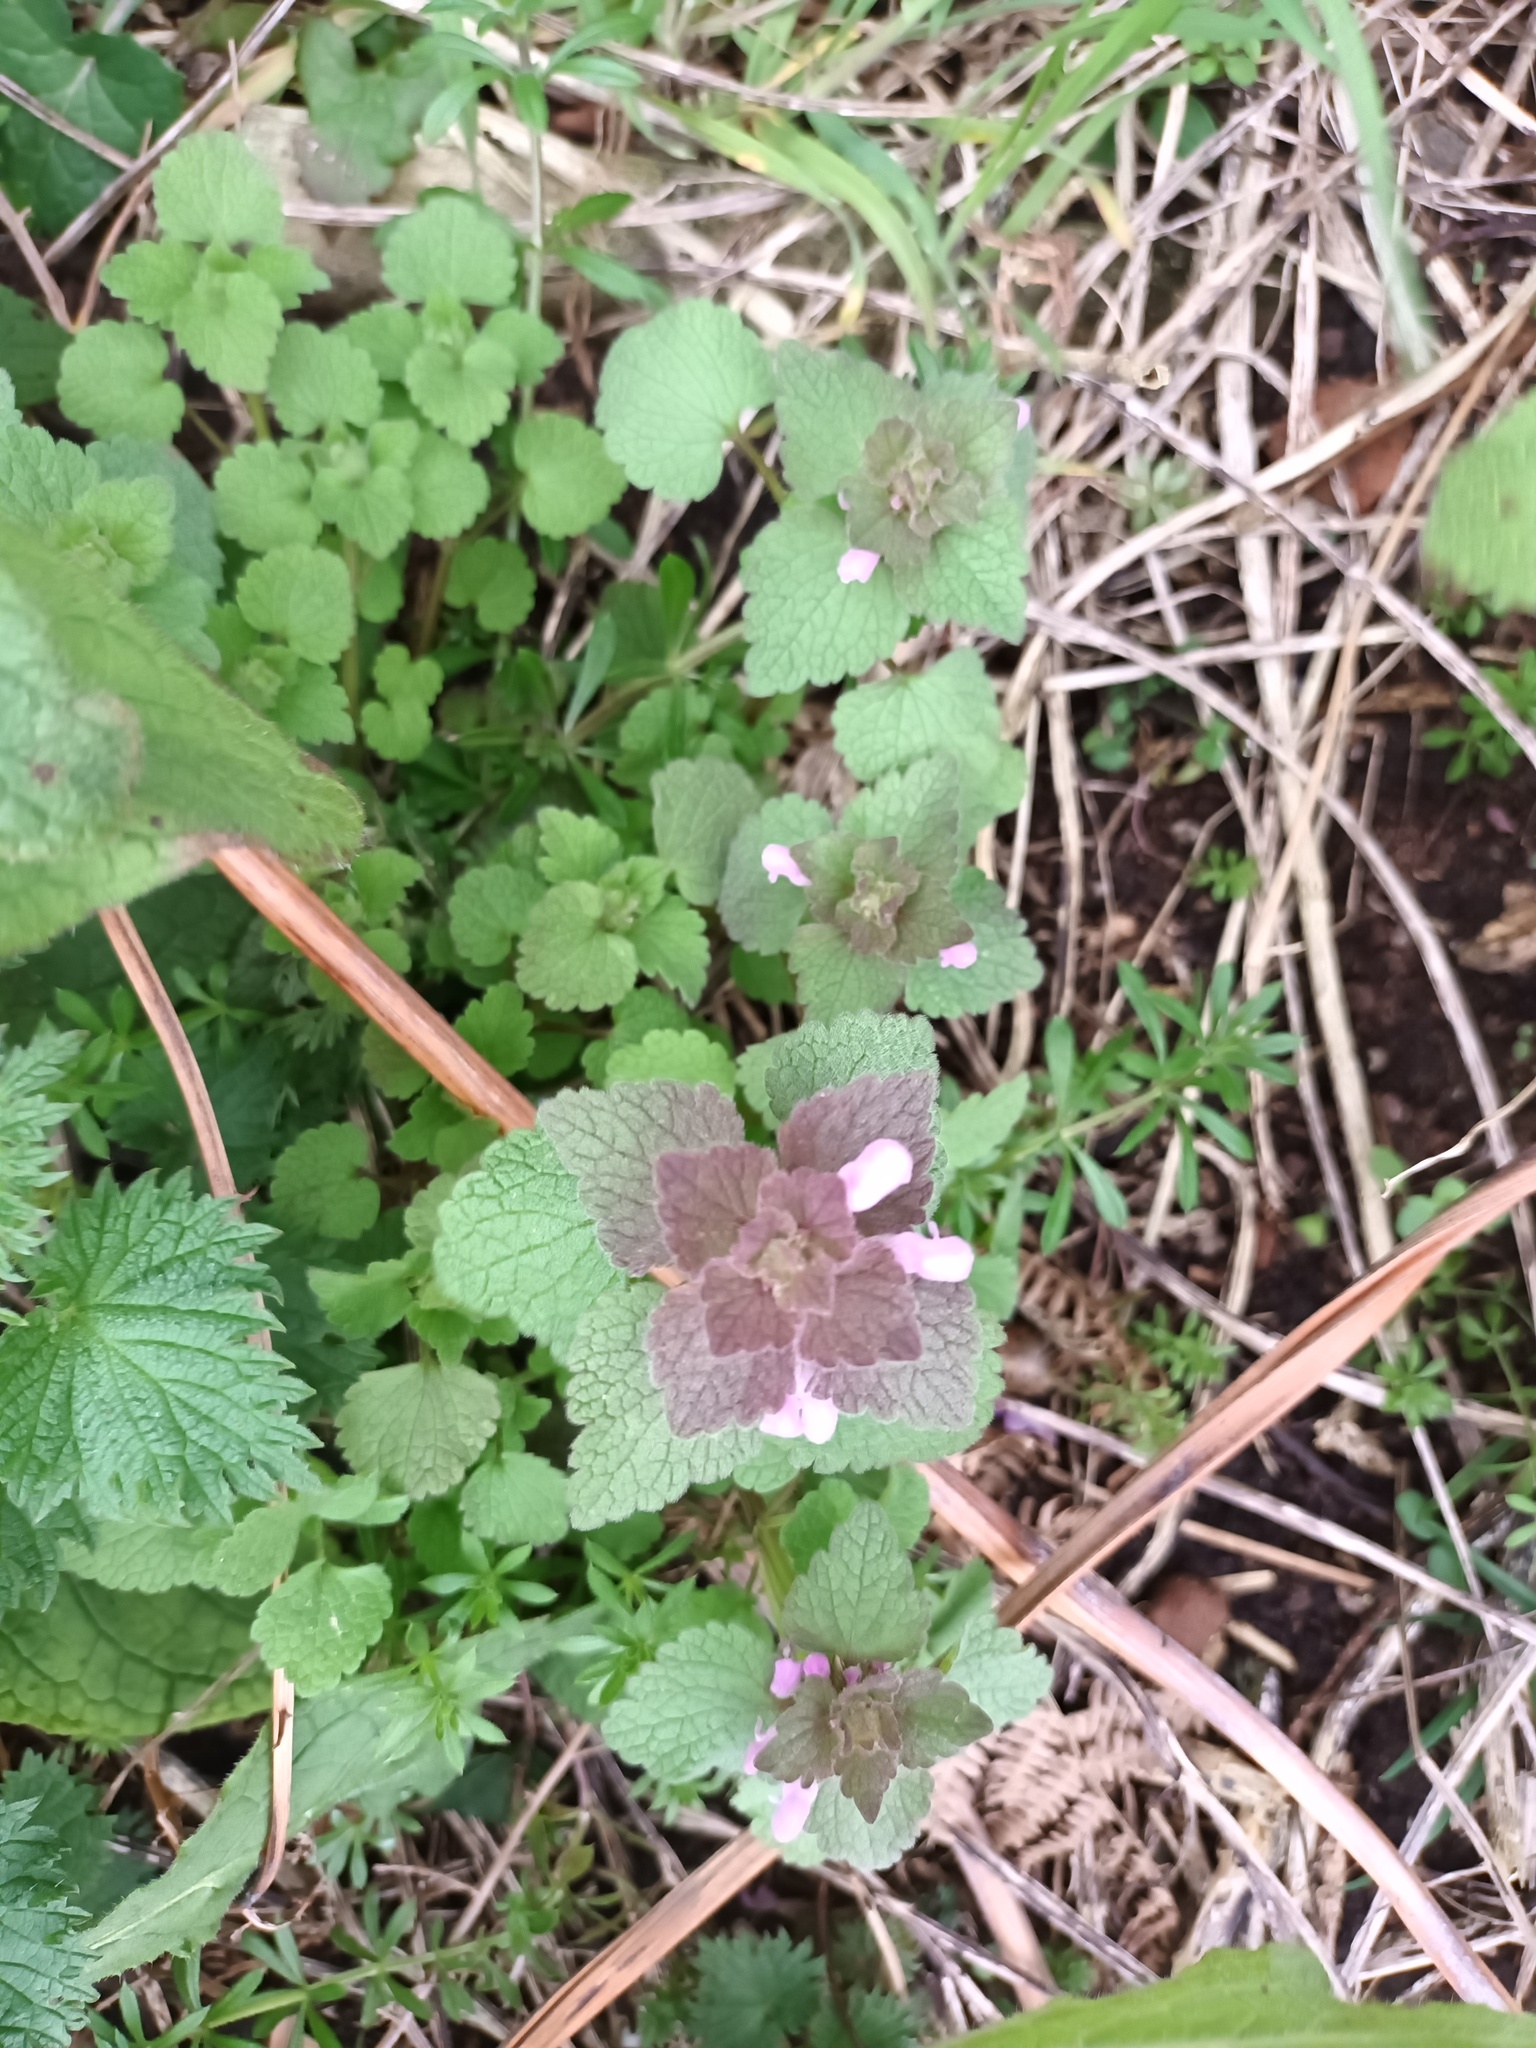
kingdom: Plantae
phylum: Tracheophyta
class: Magnoliopsida
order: Lamiales
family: Lamiaceae
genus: Lamium
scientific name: Lamium purpureum
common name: Red dead-nettle
